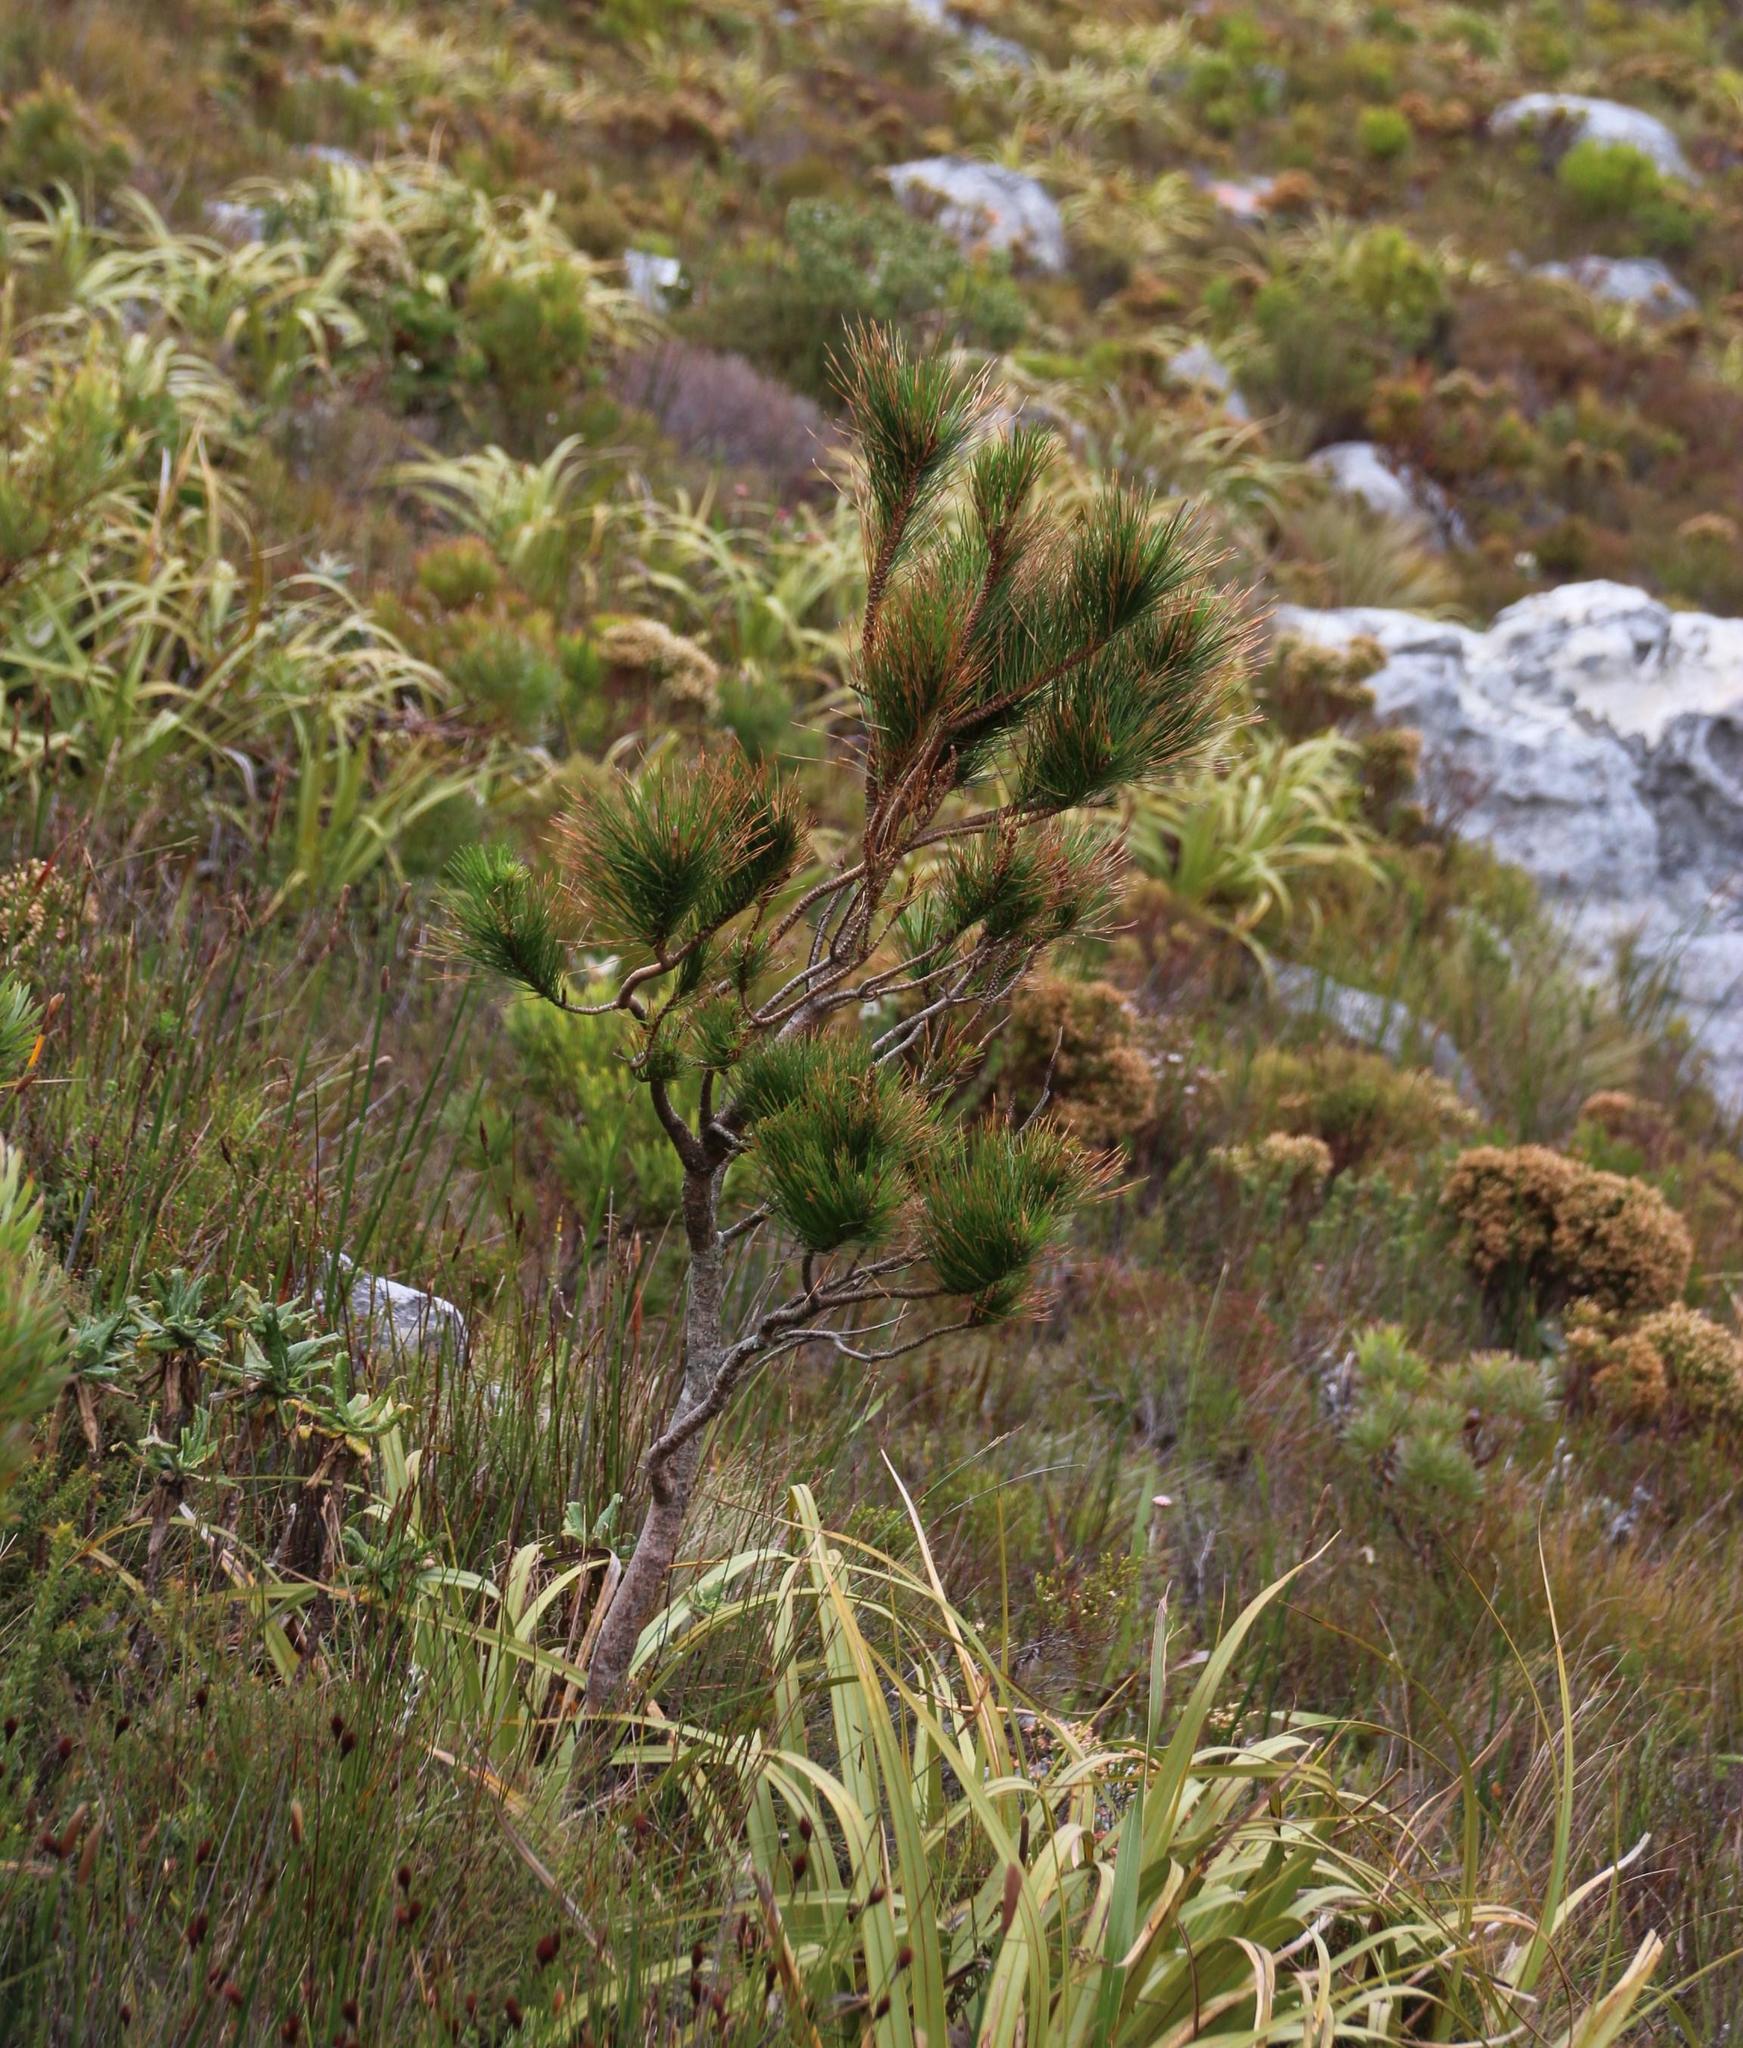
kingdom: Plantae
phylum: Tracheophyta
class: Pinopsida
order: Pinales
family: Pinaceae
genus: Pinus
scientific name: Pinus radiata
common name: Monterey pine
